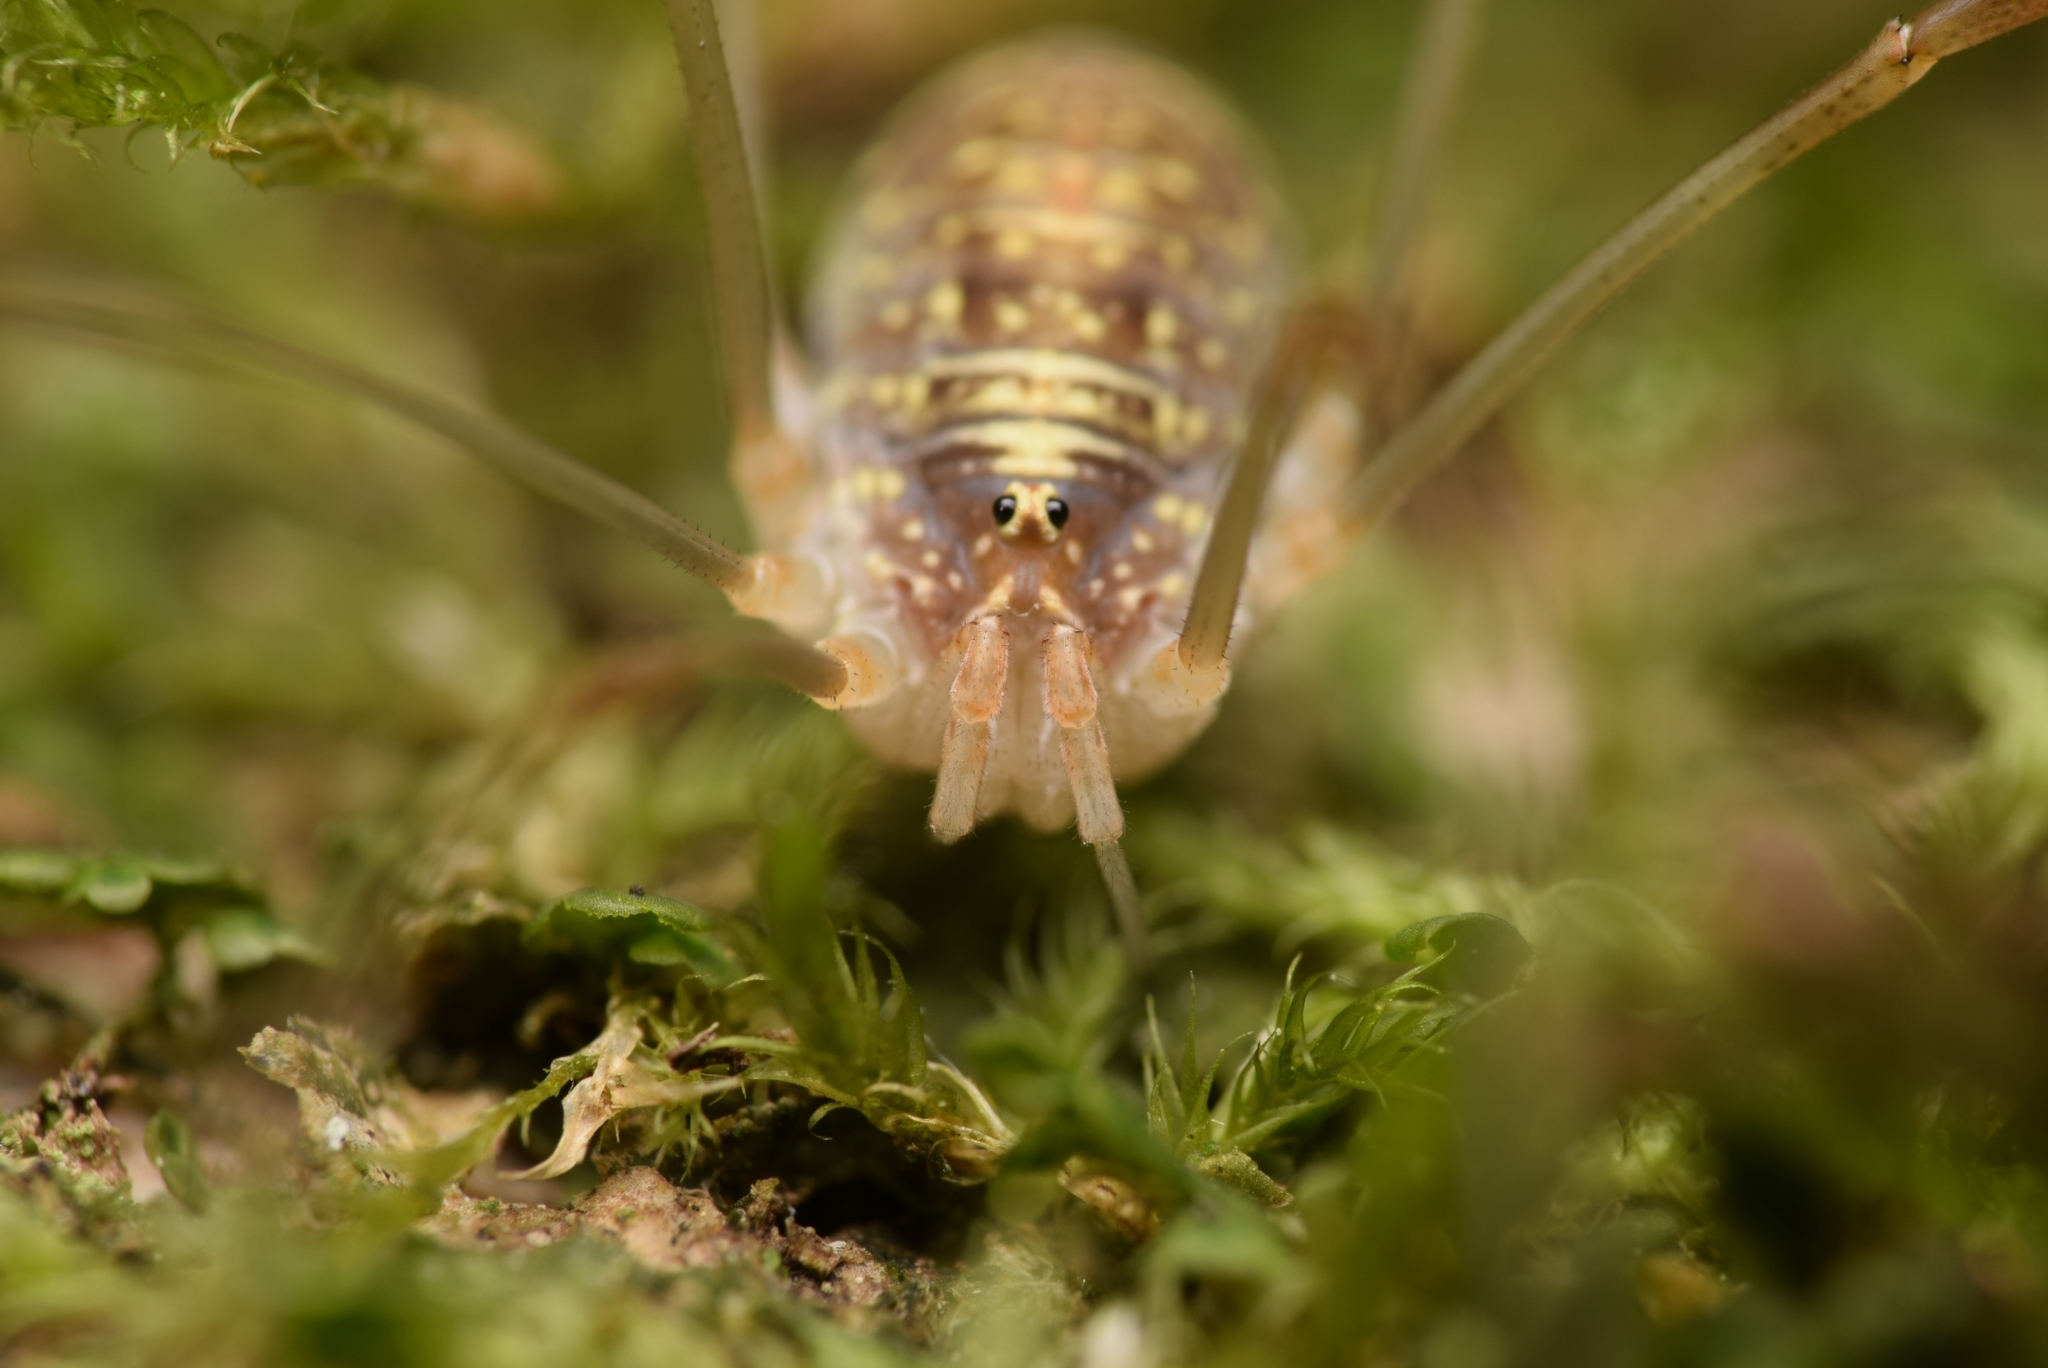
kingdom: Animalia
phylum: Arthropoda
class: Arachnida
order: Opiliones
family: Phalangiidae
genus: Opilio
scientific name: Opilio canestrinii
